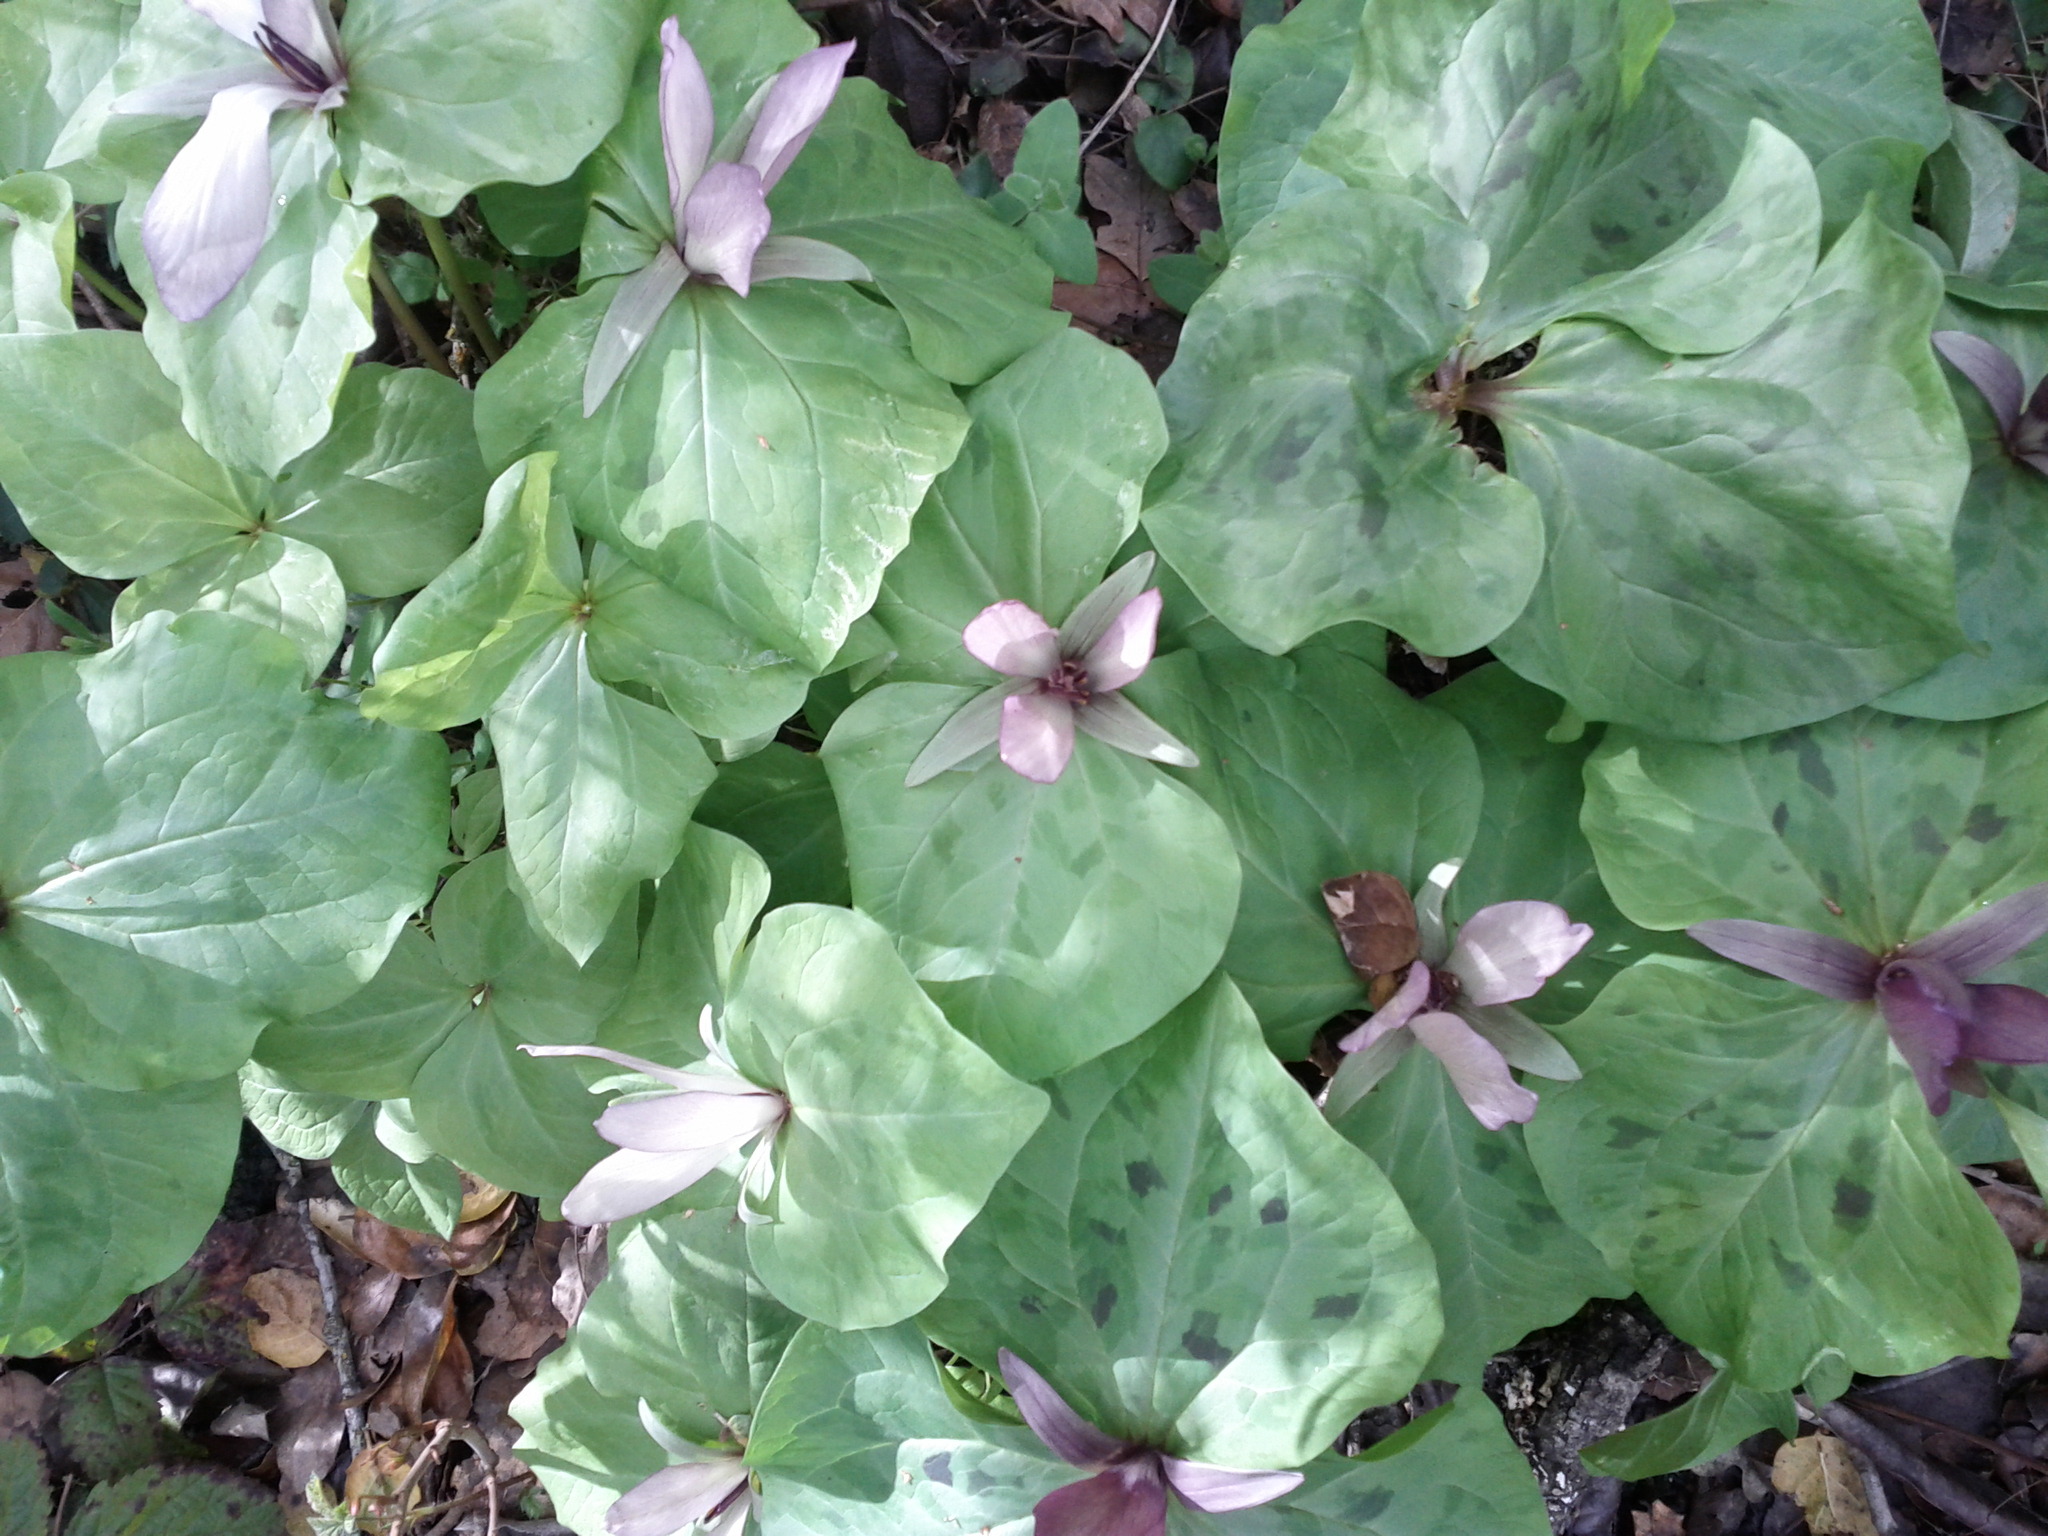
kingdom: Plantae
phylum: Tracheophyta
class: Liliopsida
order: Liliales
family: Melanthiaceae
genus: Trillium
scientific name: Trillium chloropetalum
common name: Giant trillium
